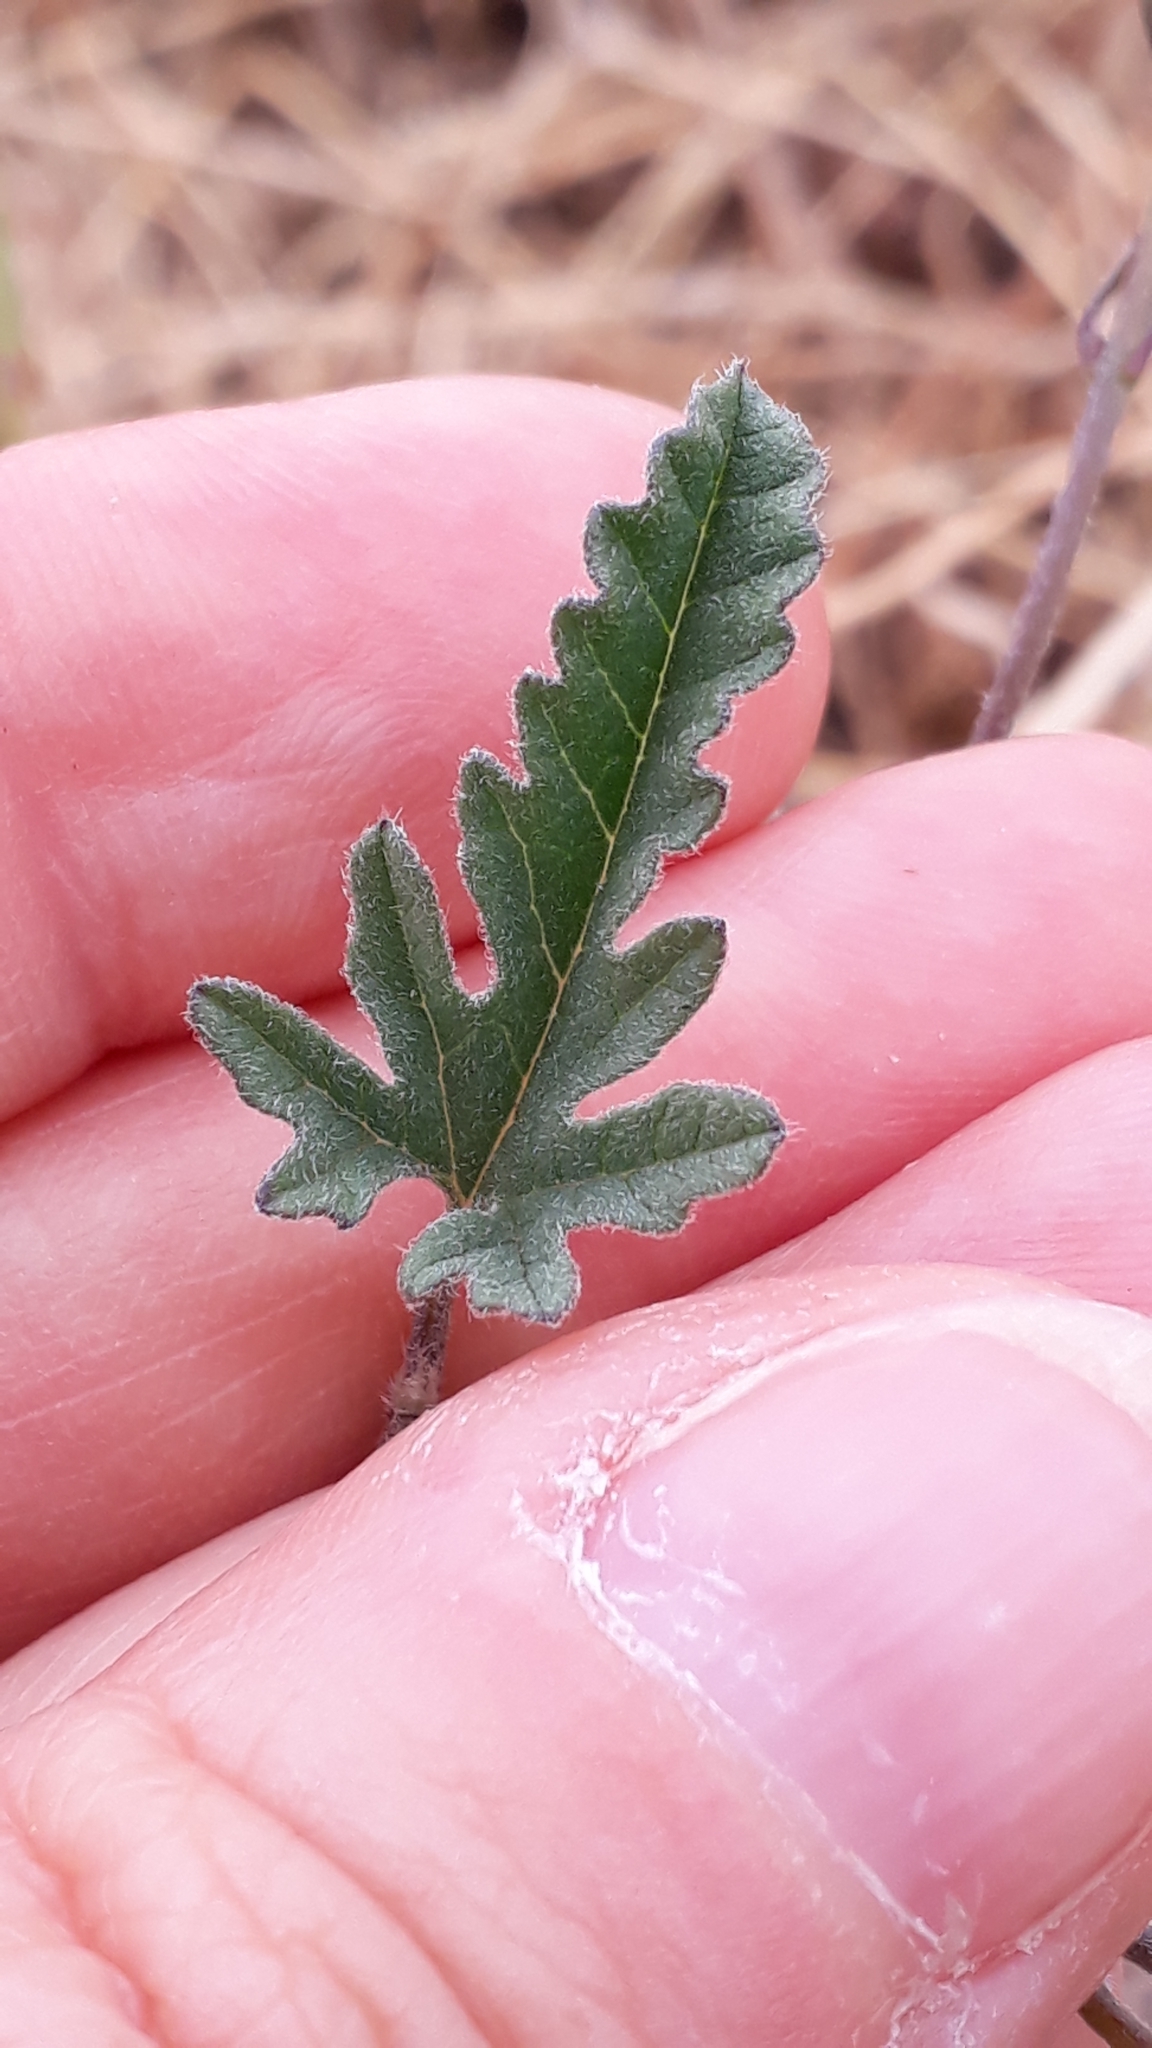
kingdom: Plantae
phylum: Tracheophyta
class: Magnoliopsida
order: Solanales
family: Convolvulaceae
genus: Convolvulus
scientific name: Convolvulus althaeoides
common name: Mallow bindweed
